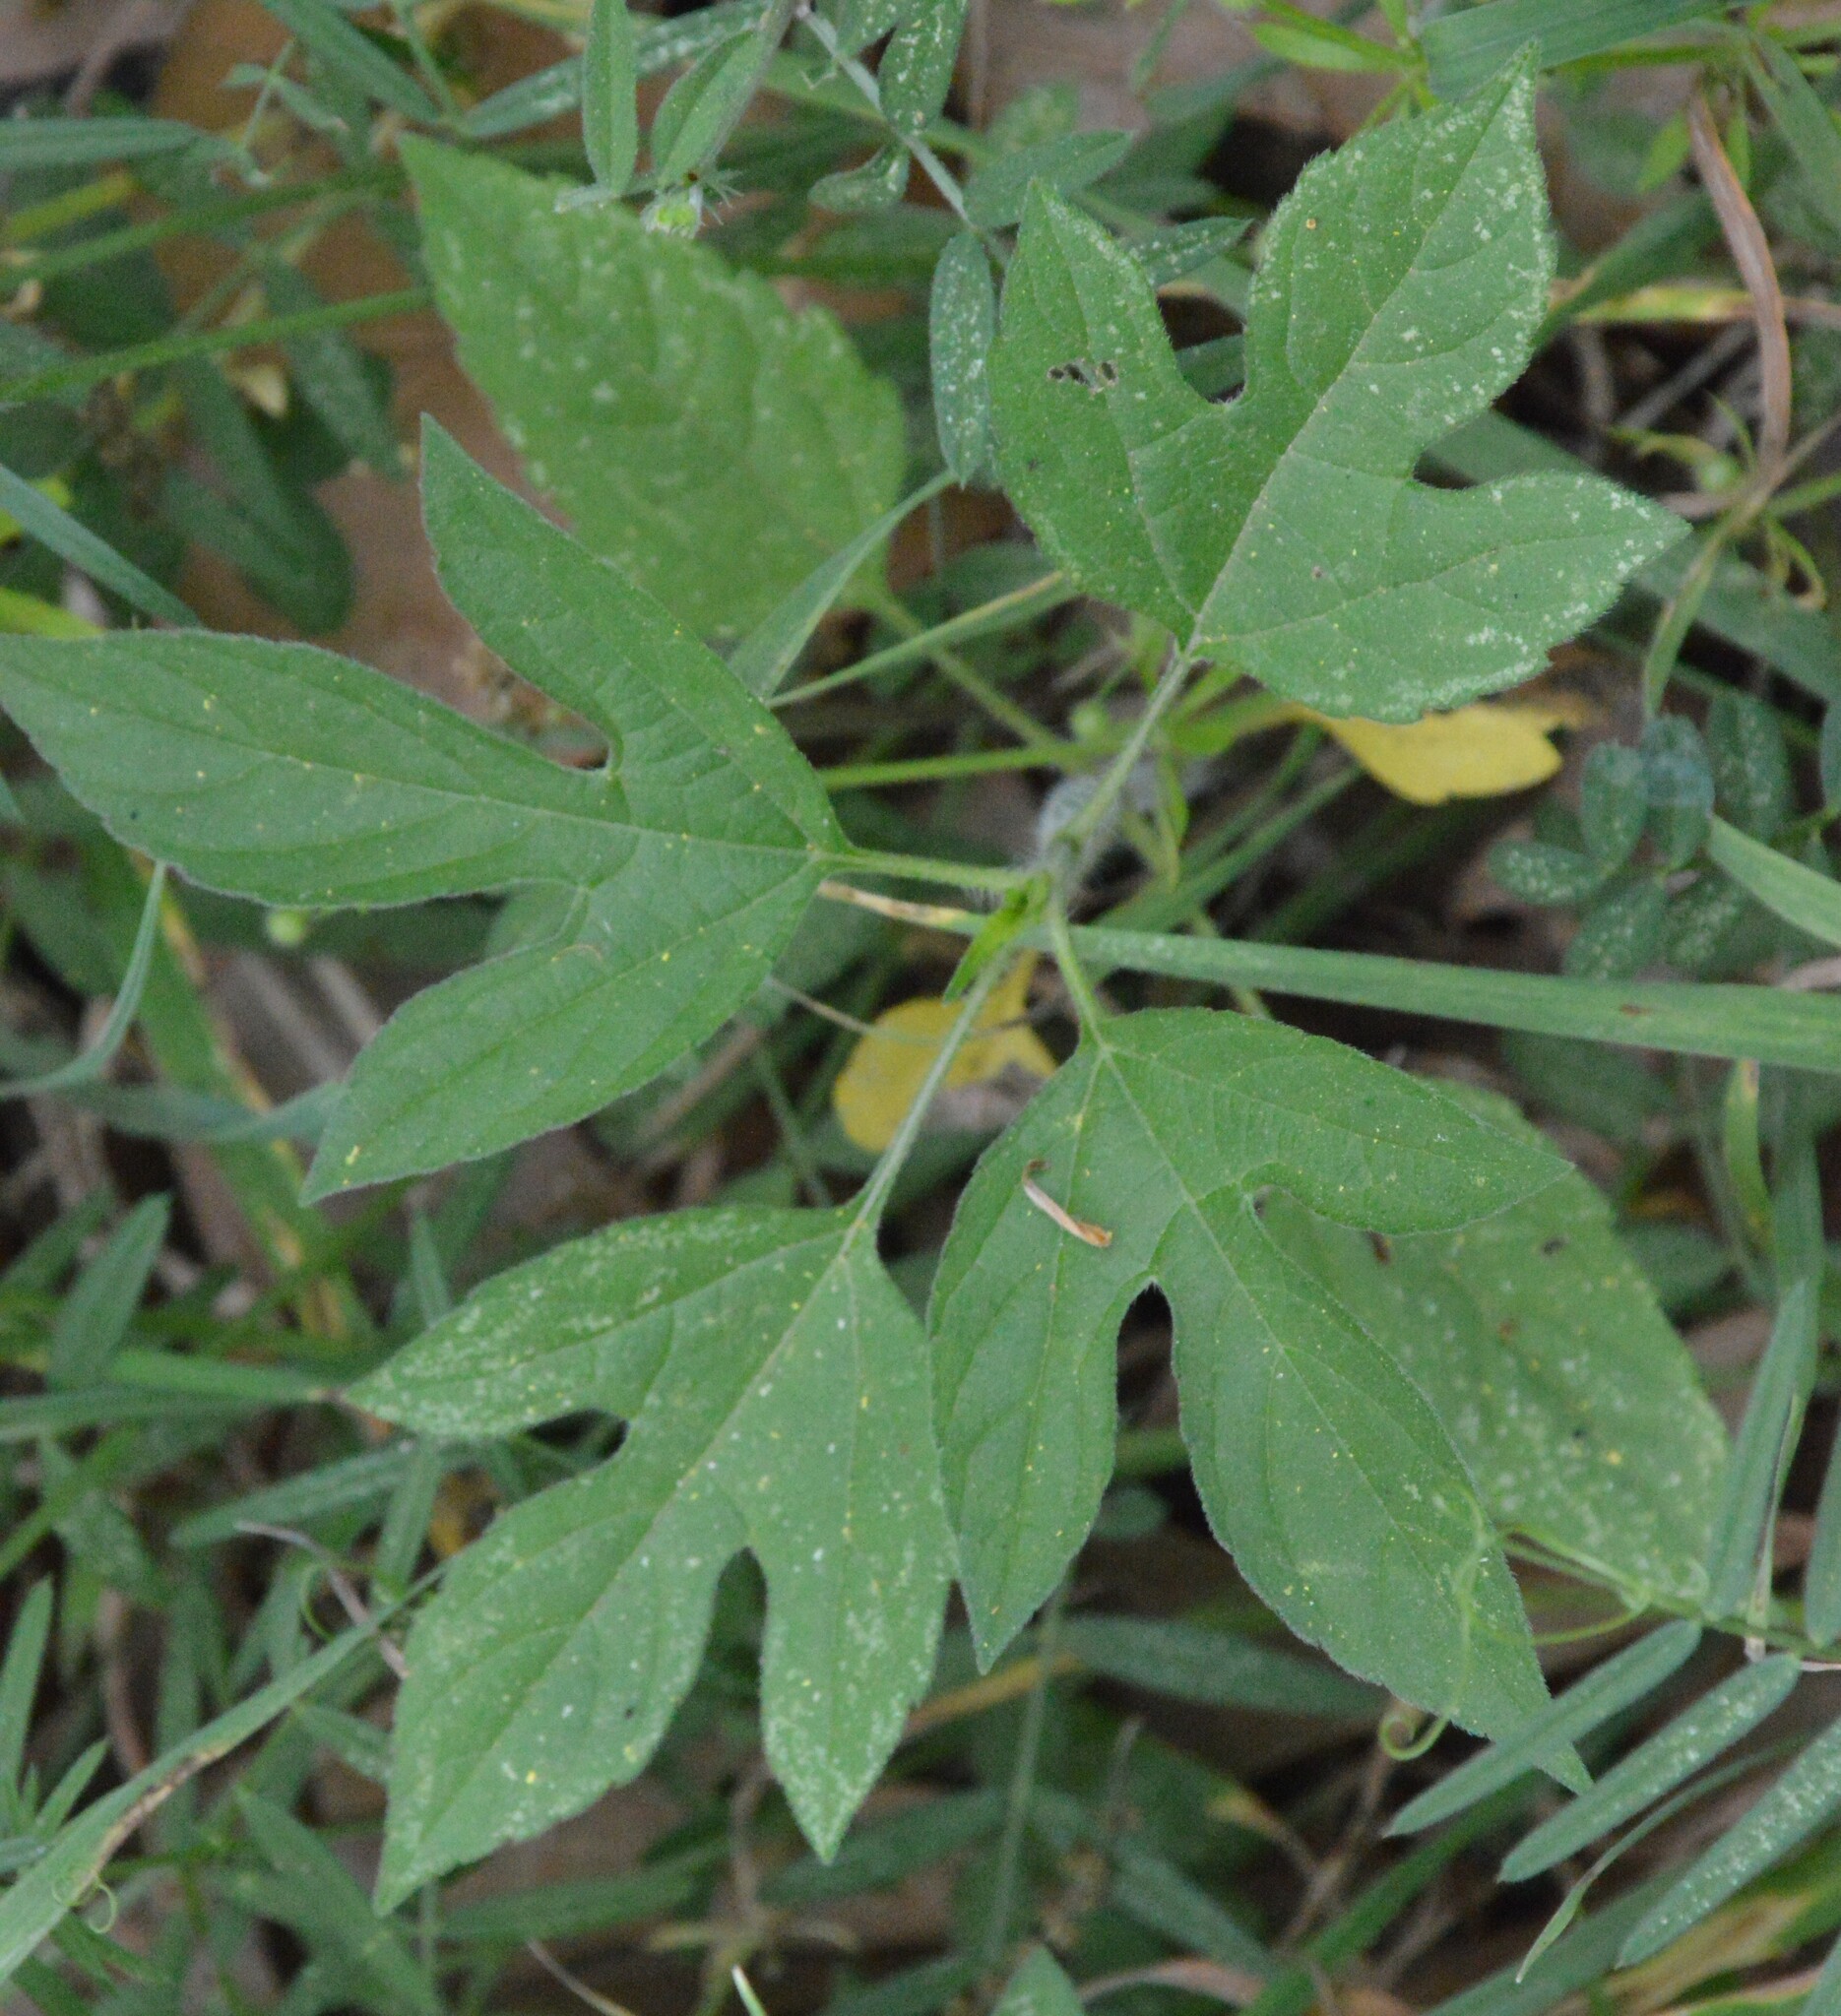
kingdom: Plantae
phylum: Tracheophyta
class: Magnoliopsida
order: Asterales
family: Asteraceae
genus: Ambrosia
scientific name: Ambrosia trifida
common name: Giant ragweed
